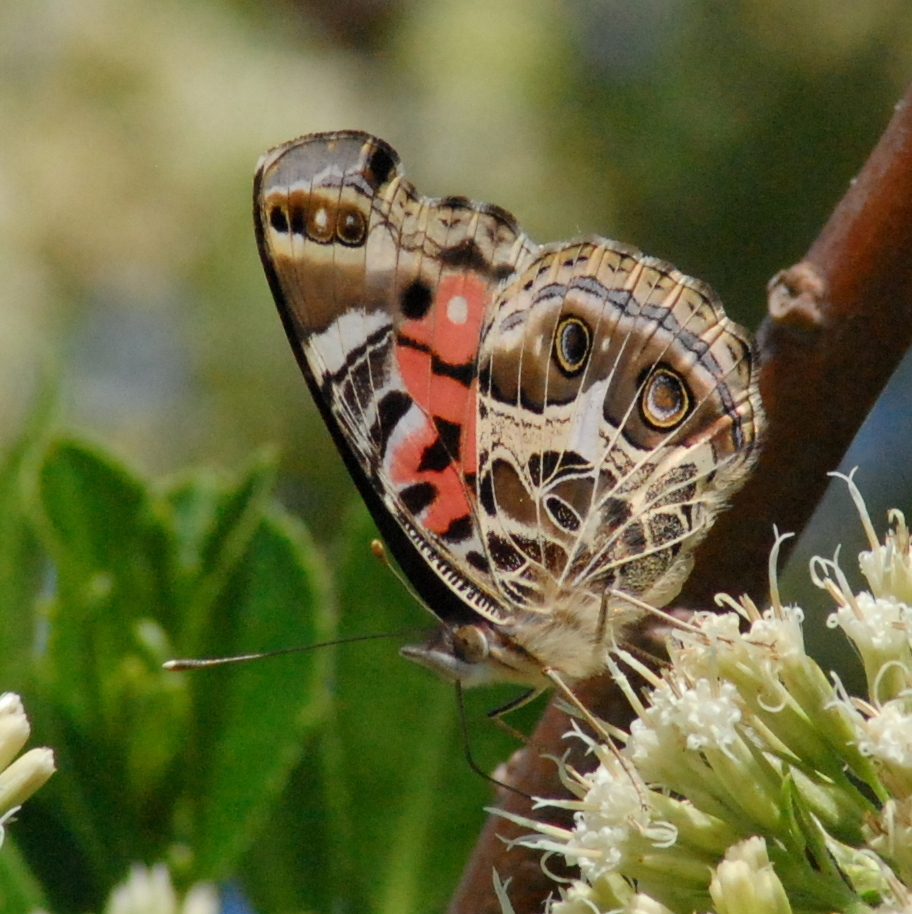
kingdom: Animalia
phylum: Arthropoda
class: Insecta
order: Lepidoptera
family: Nymphalidae
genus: Vanessa
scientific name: Vanessa braziliensis
